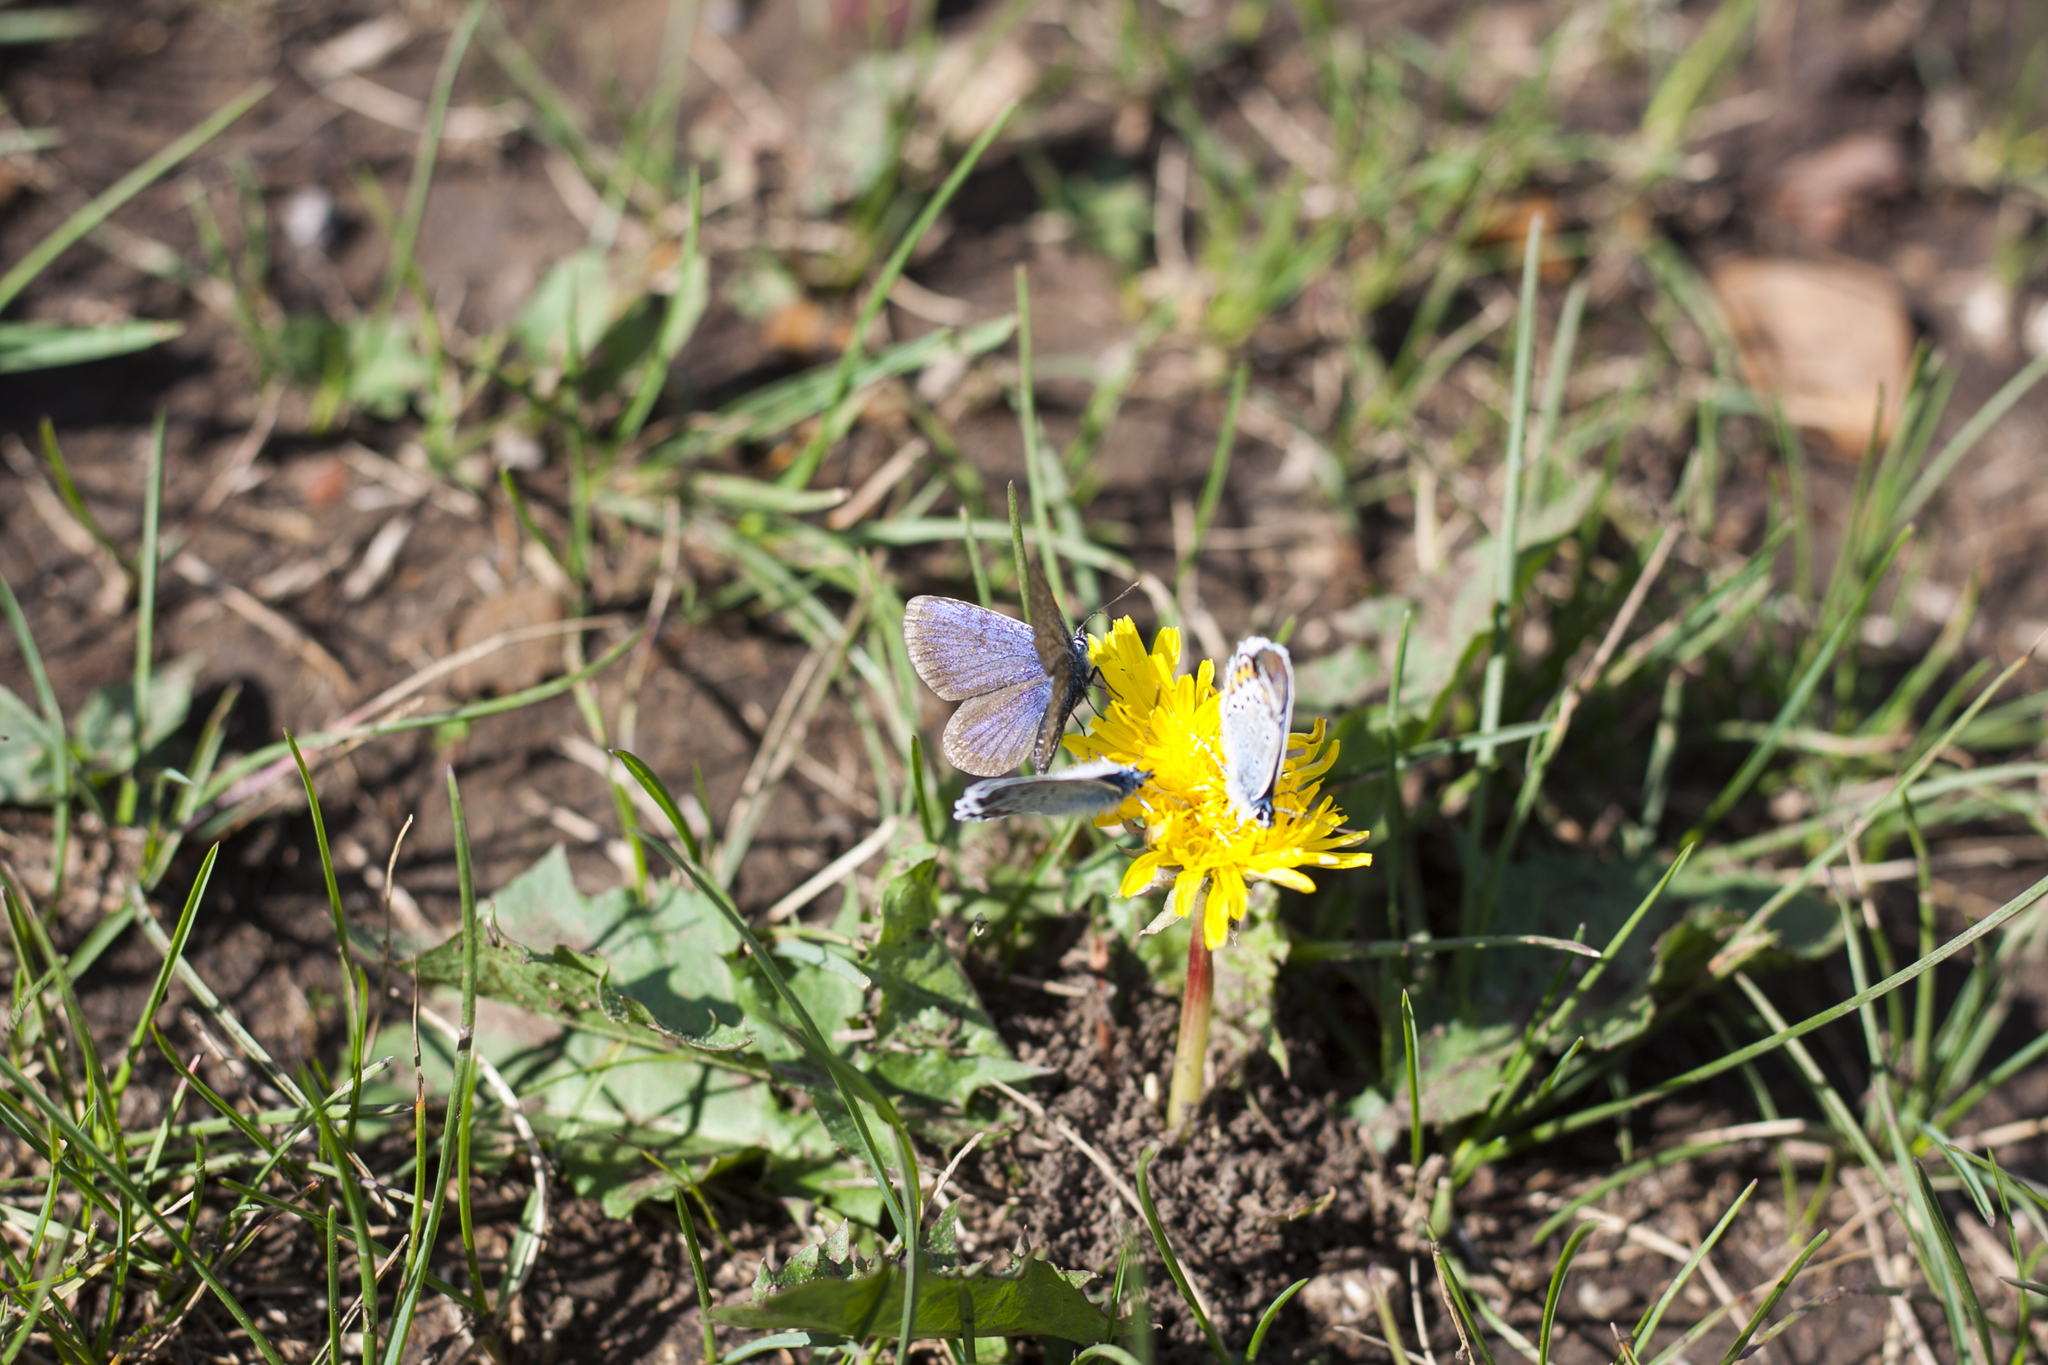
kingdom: Animalia
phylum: Arthropoda
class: Insecta
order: Lepidoptera
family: Lycaenidae
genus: Plebejus
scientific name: Plebejus argus
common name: Silver-studded blue
